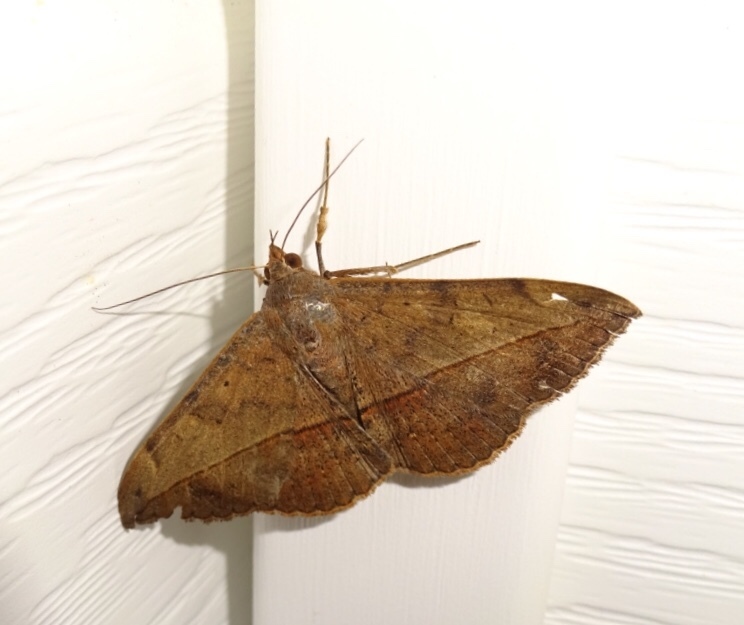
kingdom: Animalia
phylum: Arthropoda
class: Insecta
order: Lepidoptera
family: Erebidae
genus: Anticarsia
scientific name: Anticarsia gemmatalis
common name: Cutworm moth
